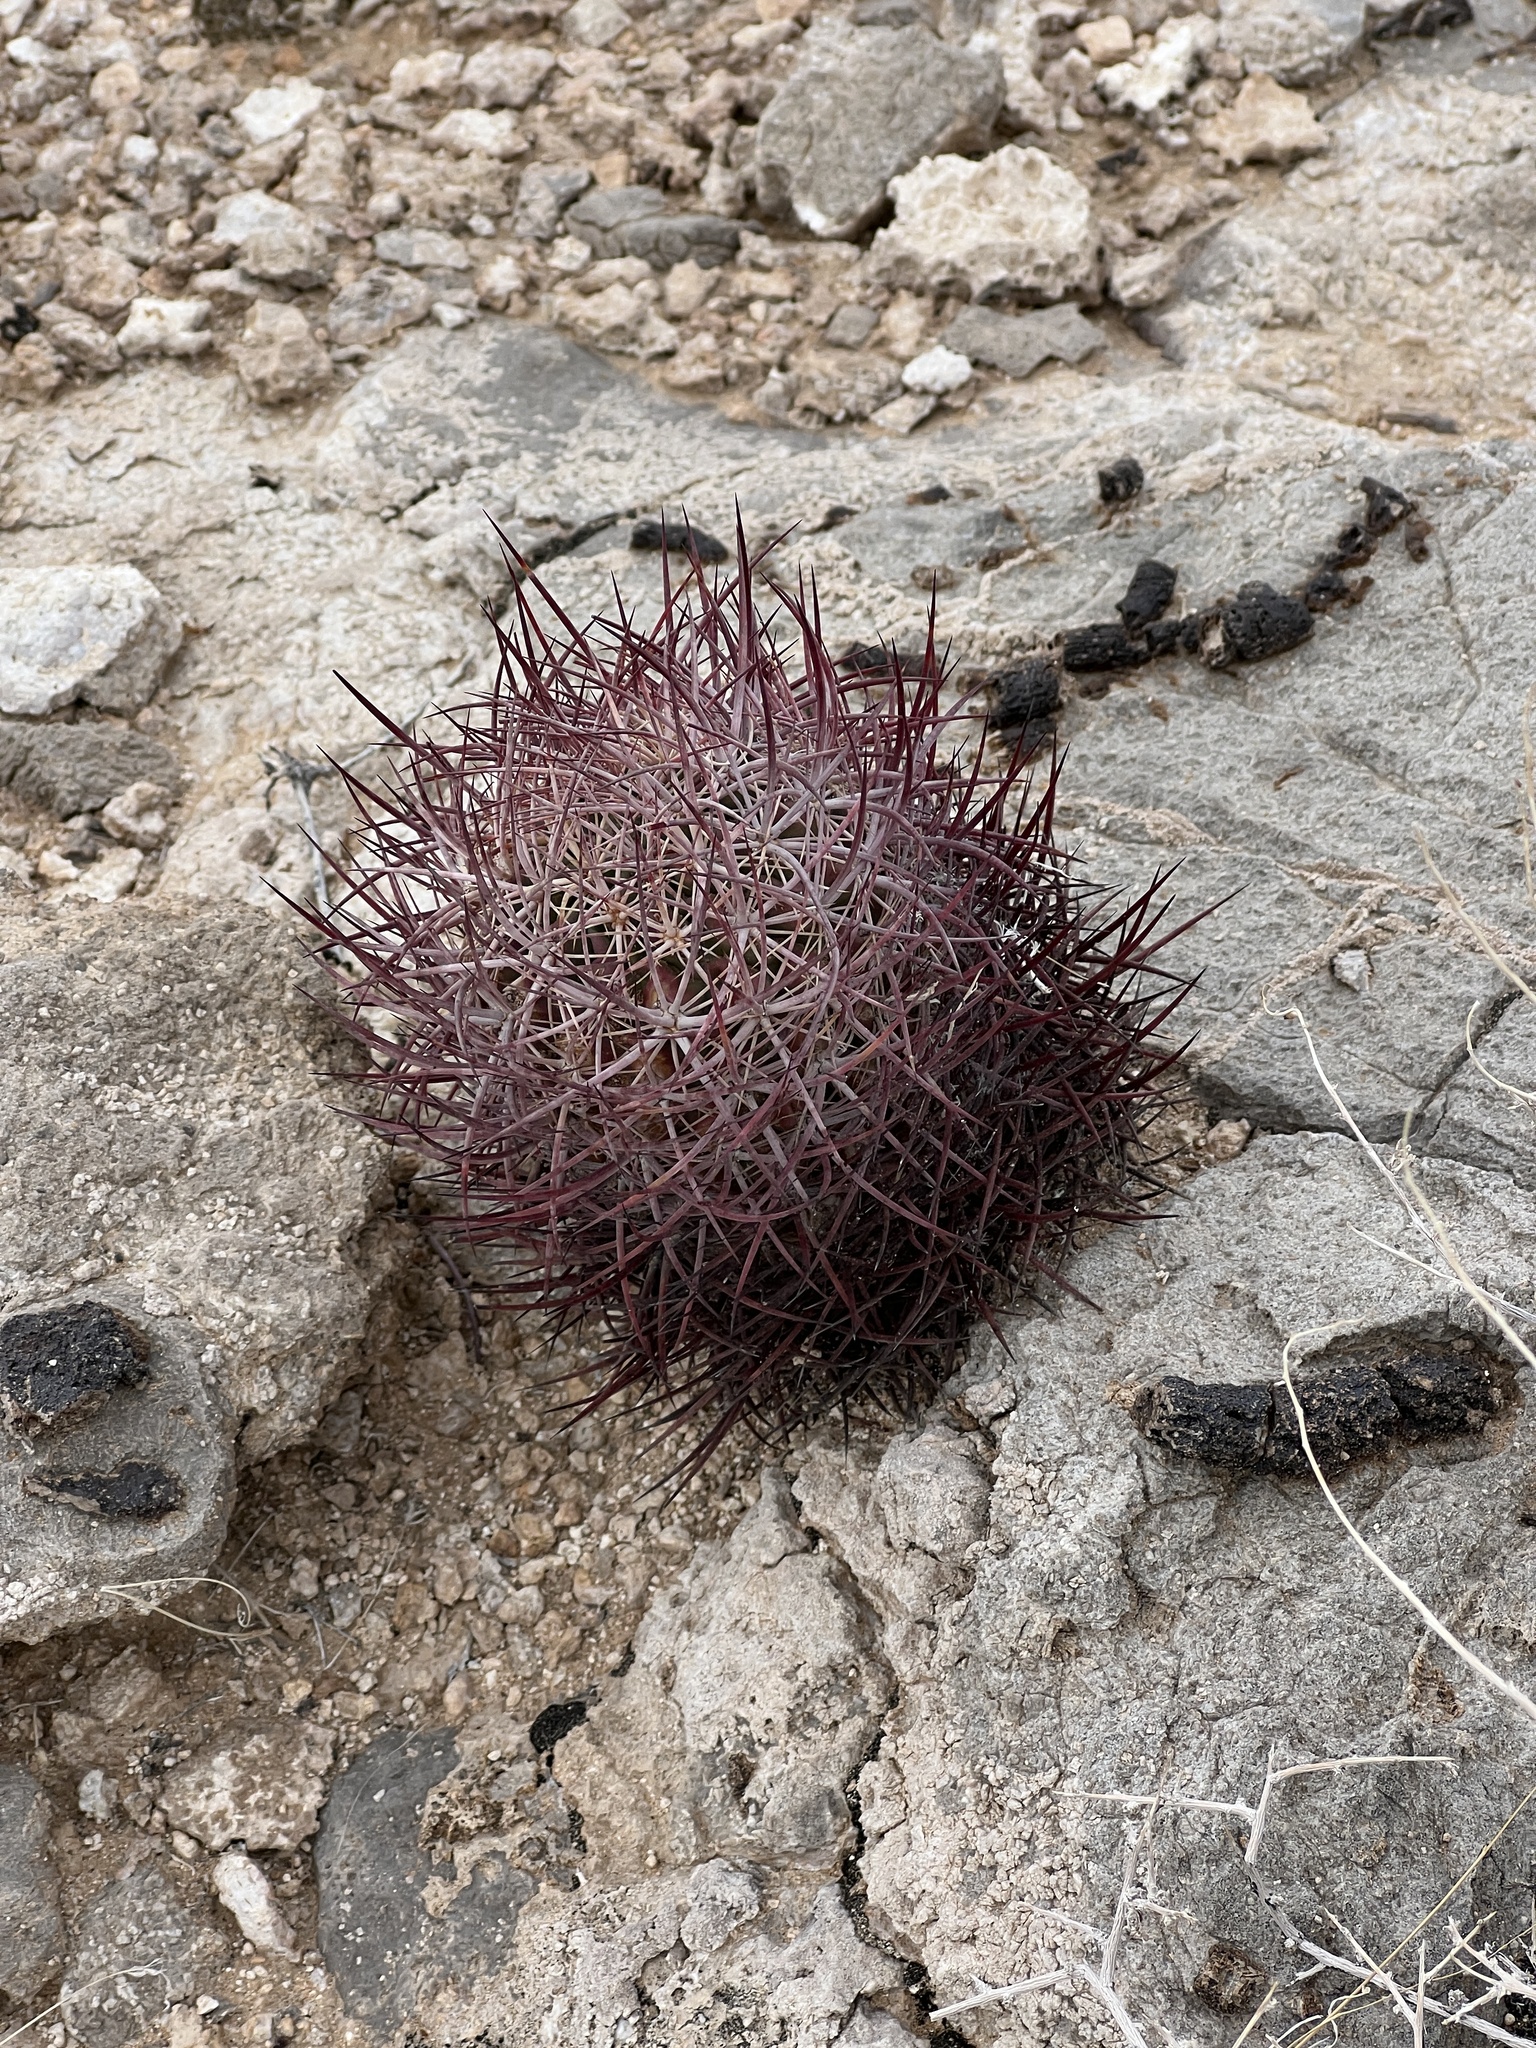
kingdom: Plantae
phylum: Tracheophyta
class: Magnoliopsida
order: Caryophyllales
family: Cactaceae
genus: Sclerocactus
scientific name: Sclerocactus johnsonii
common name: Eight-spine fishhook cactus
